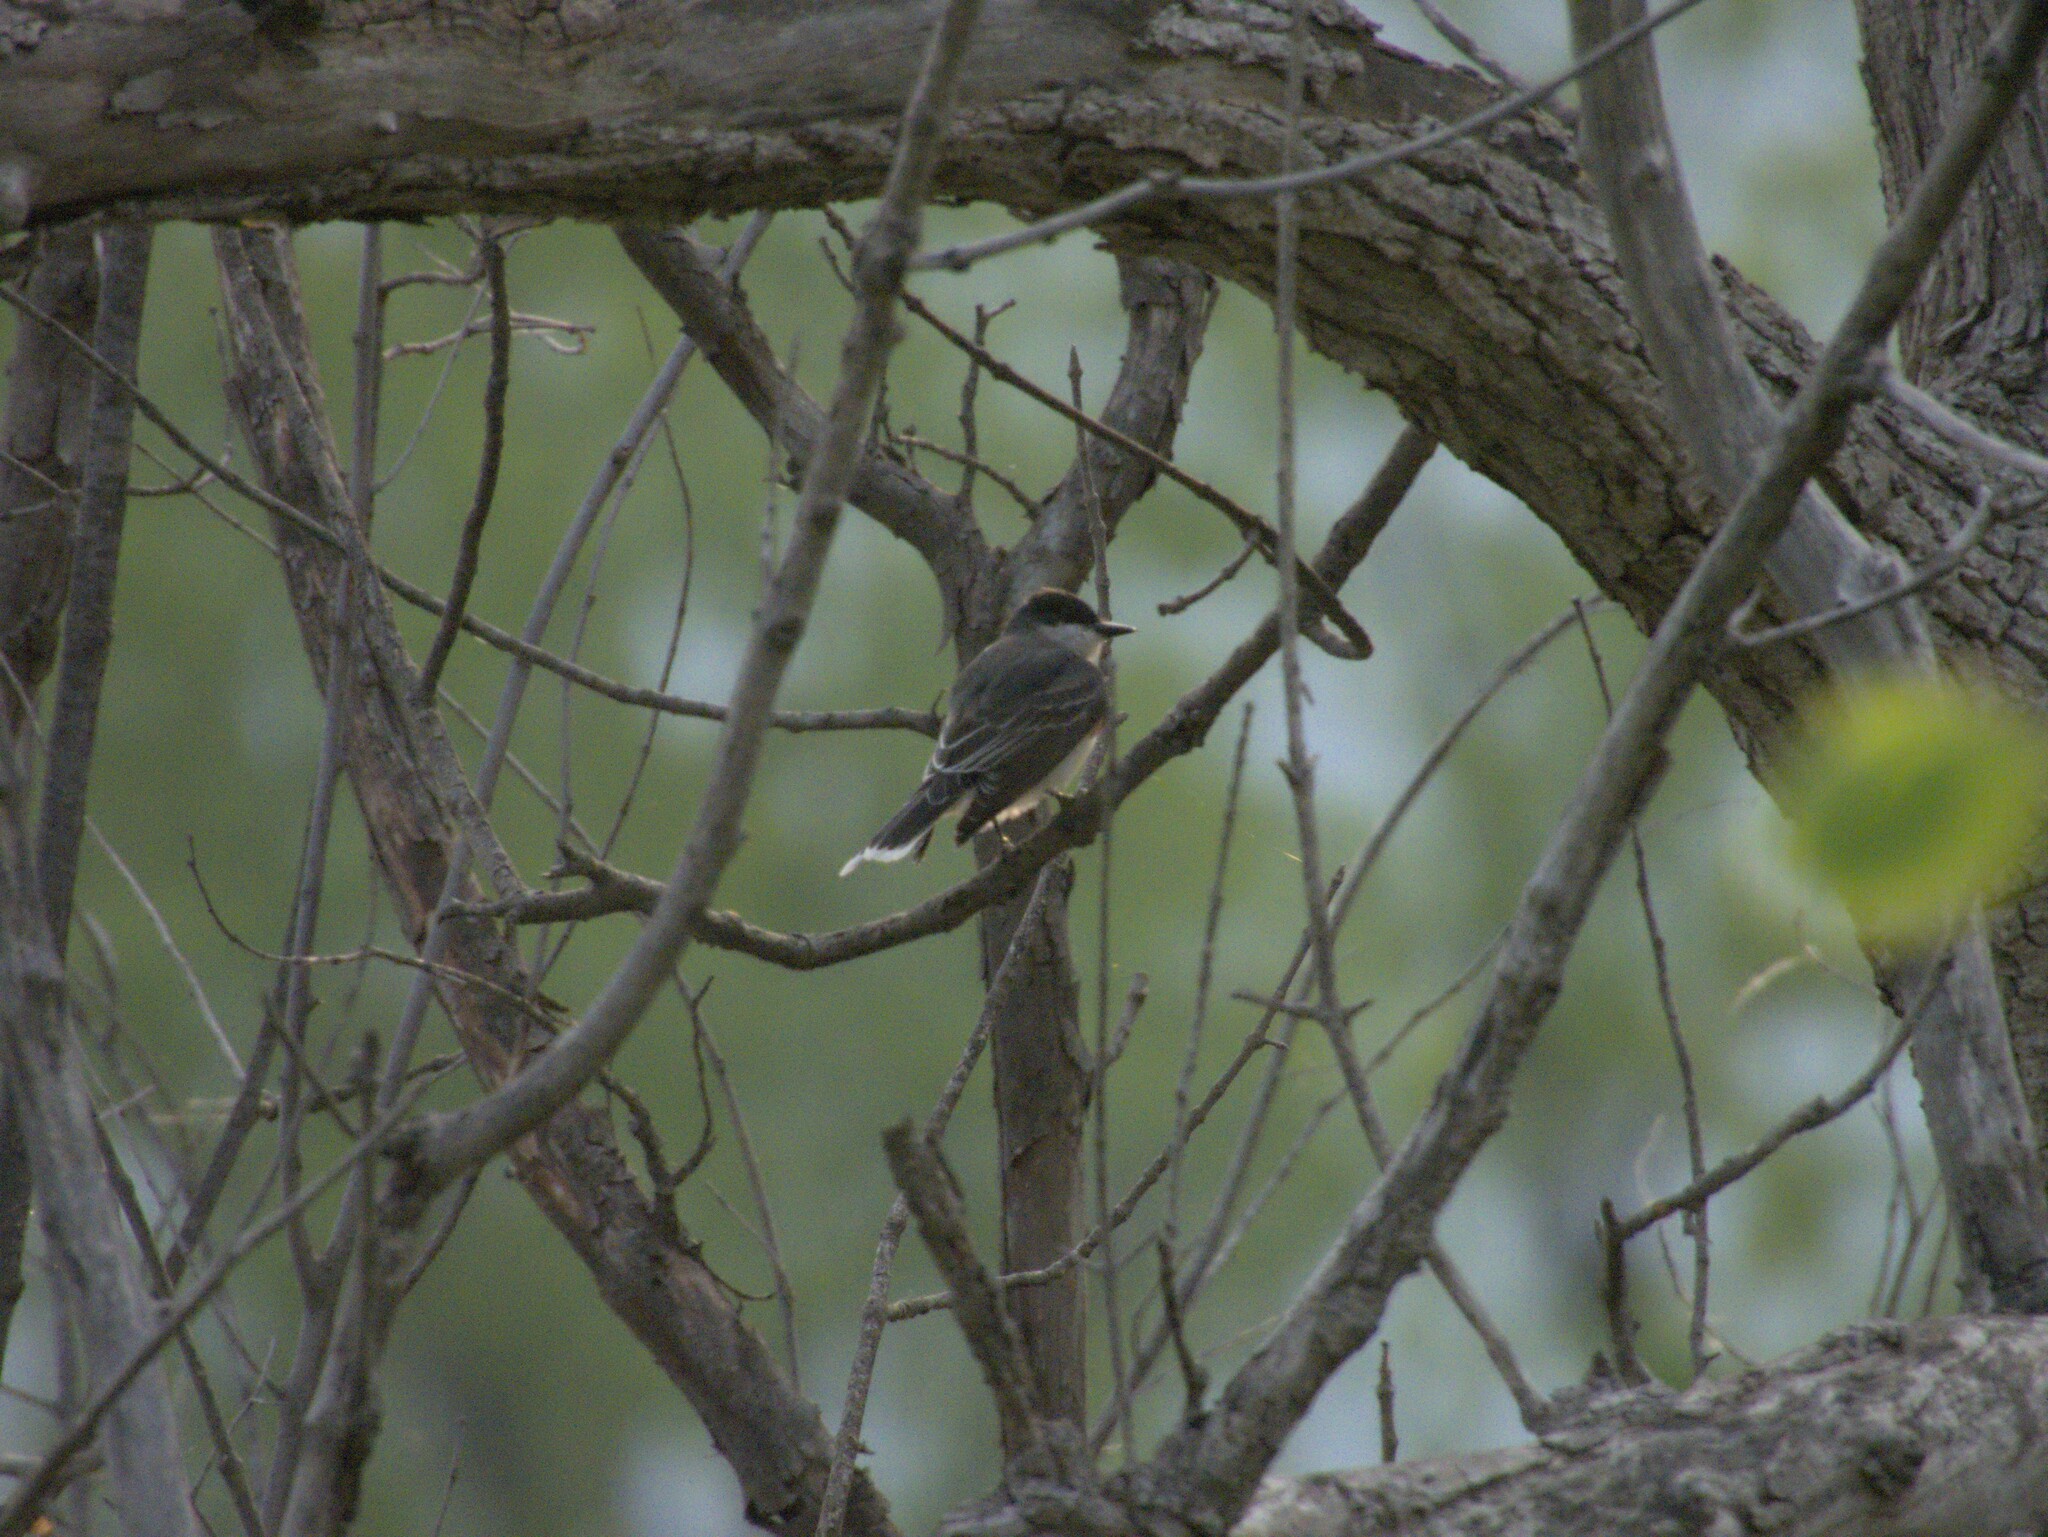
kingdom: Animalia
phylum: Chordata
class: Aves
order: Passeriformes
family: Tyrannidae
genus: Tyrannus
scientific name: Tyrannus tyrannus
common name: Eastern kingbird
